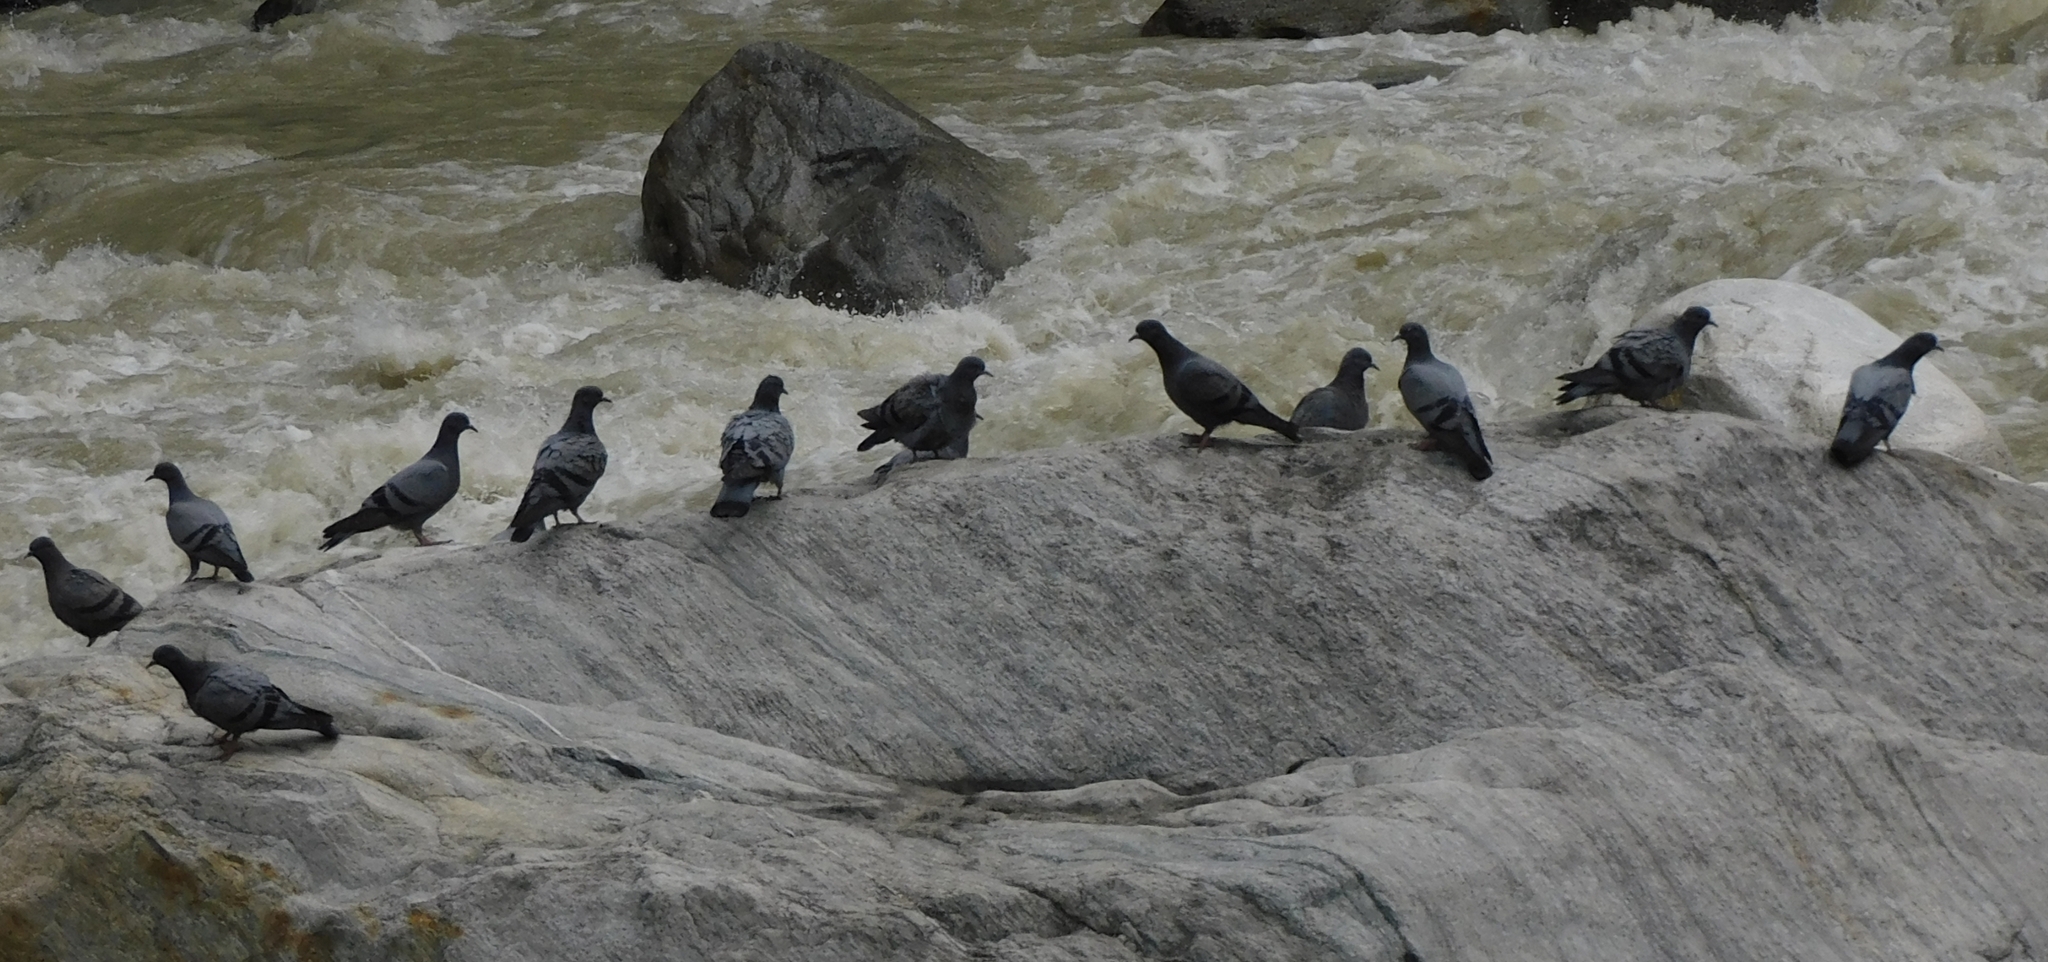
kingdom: Animalia
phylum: Chordata
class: Aves
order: Columbiformes
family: Columbidae
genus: Columba
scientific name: Columba livia
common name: Rock pigeon
